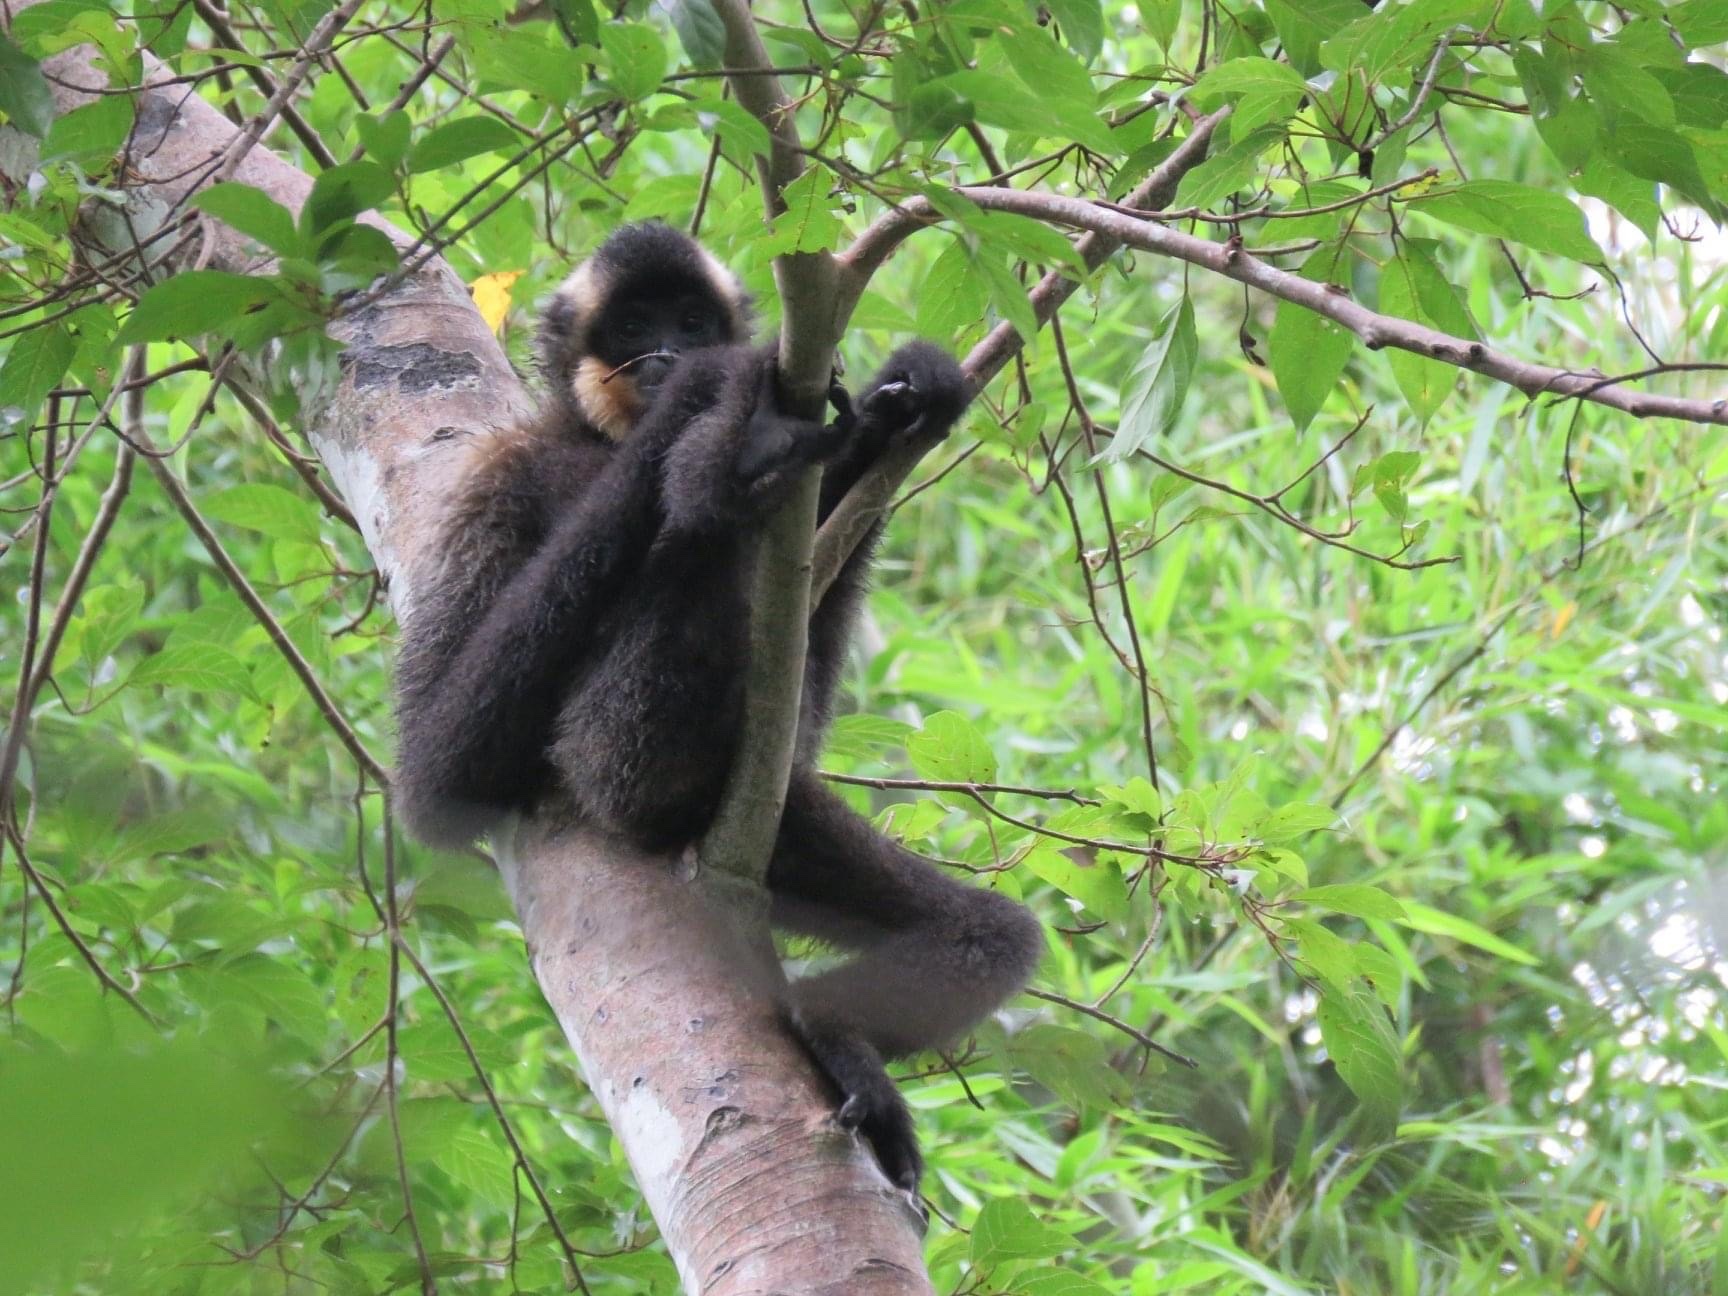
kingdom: Animalia
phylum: Chordata
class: Mammalia
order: Primates
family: Hylobatidae
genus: Nomascus
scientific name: Nomascus gabriellae
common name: Red-cheeked gibbon
